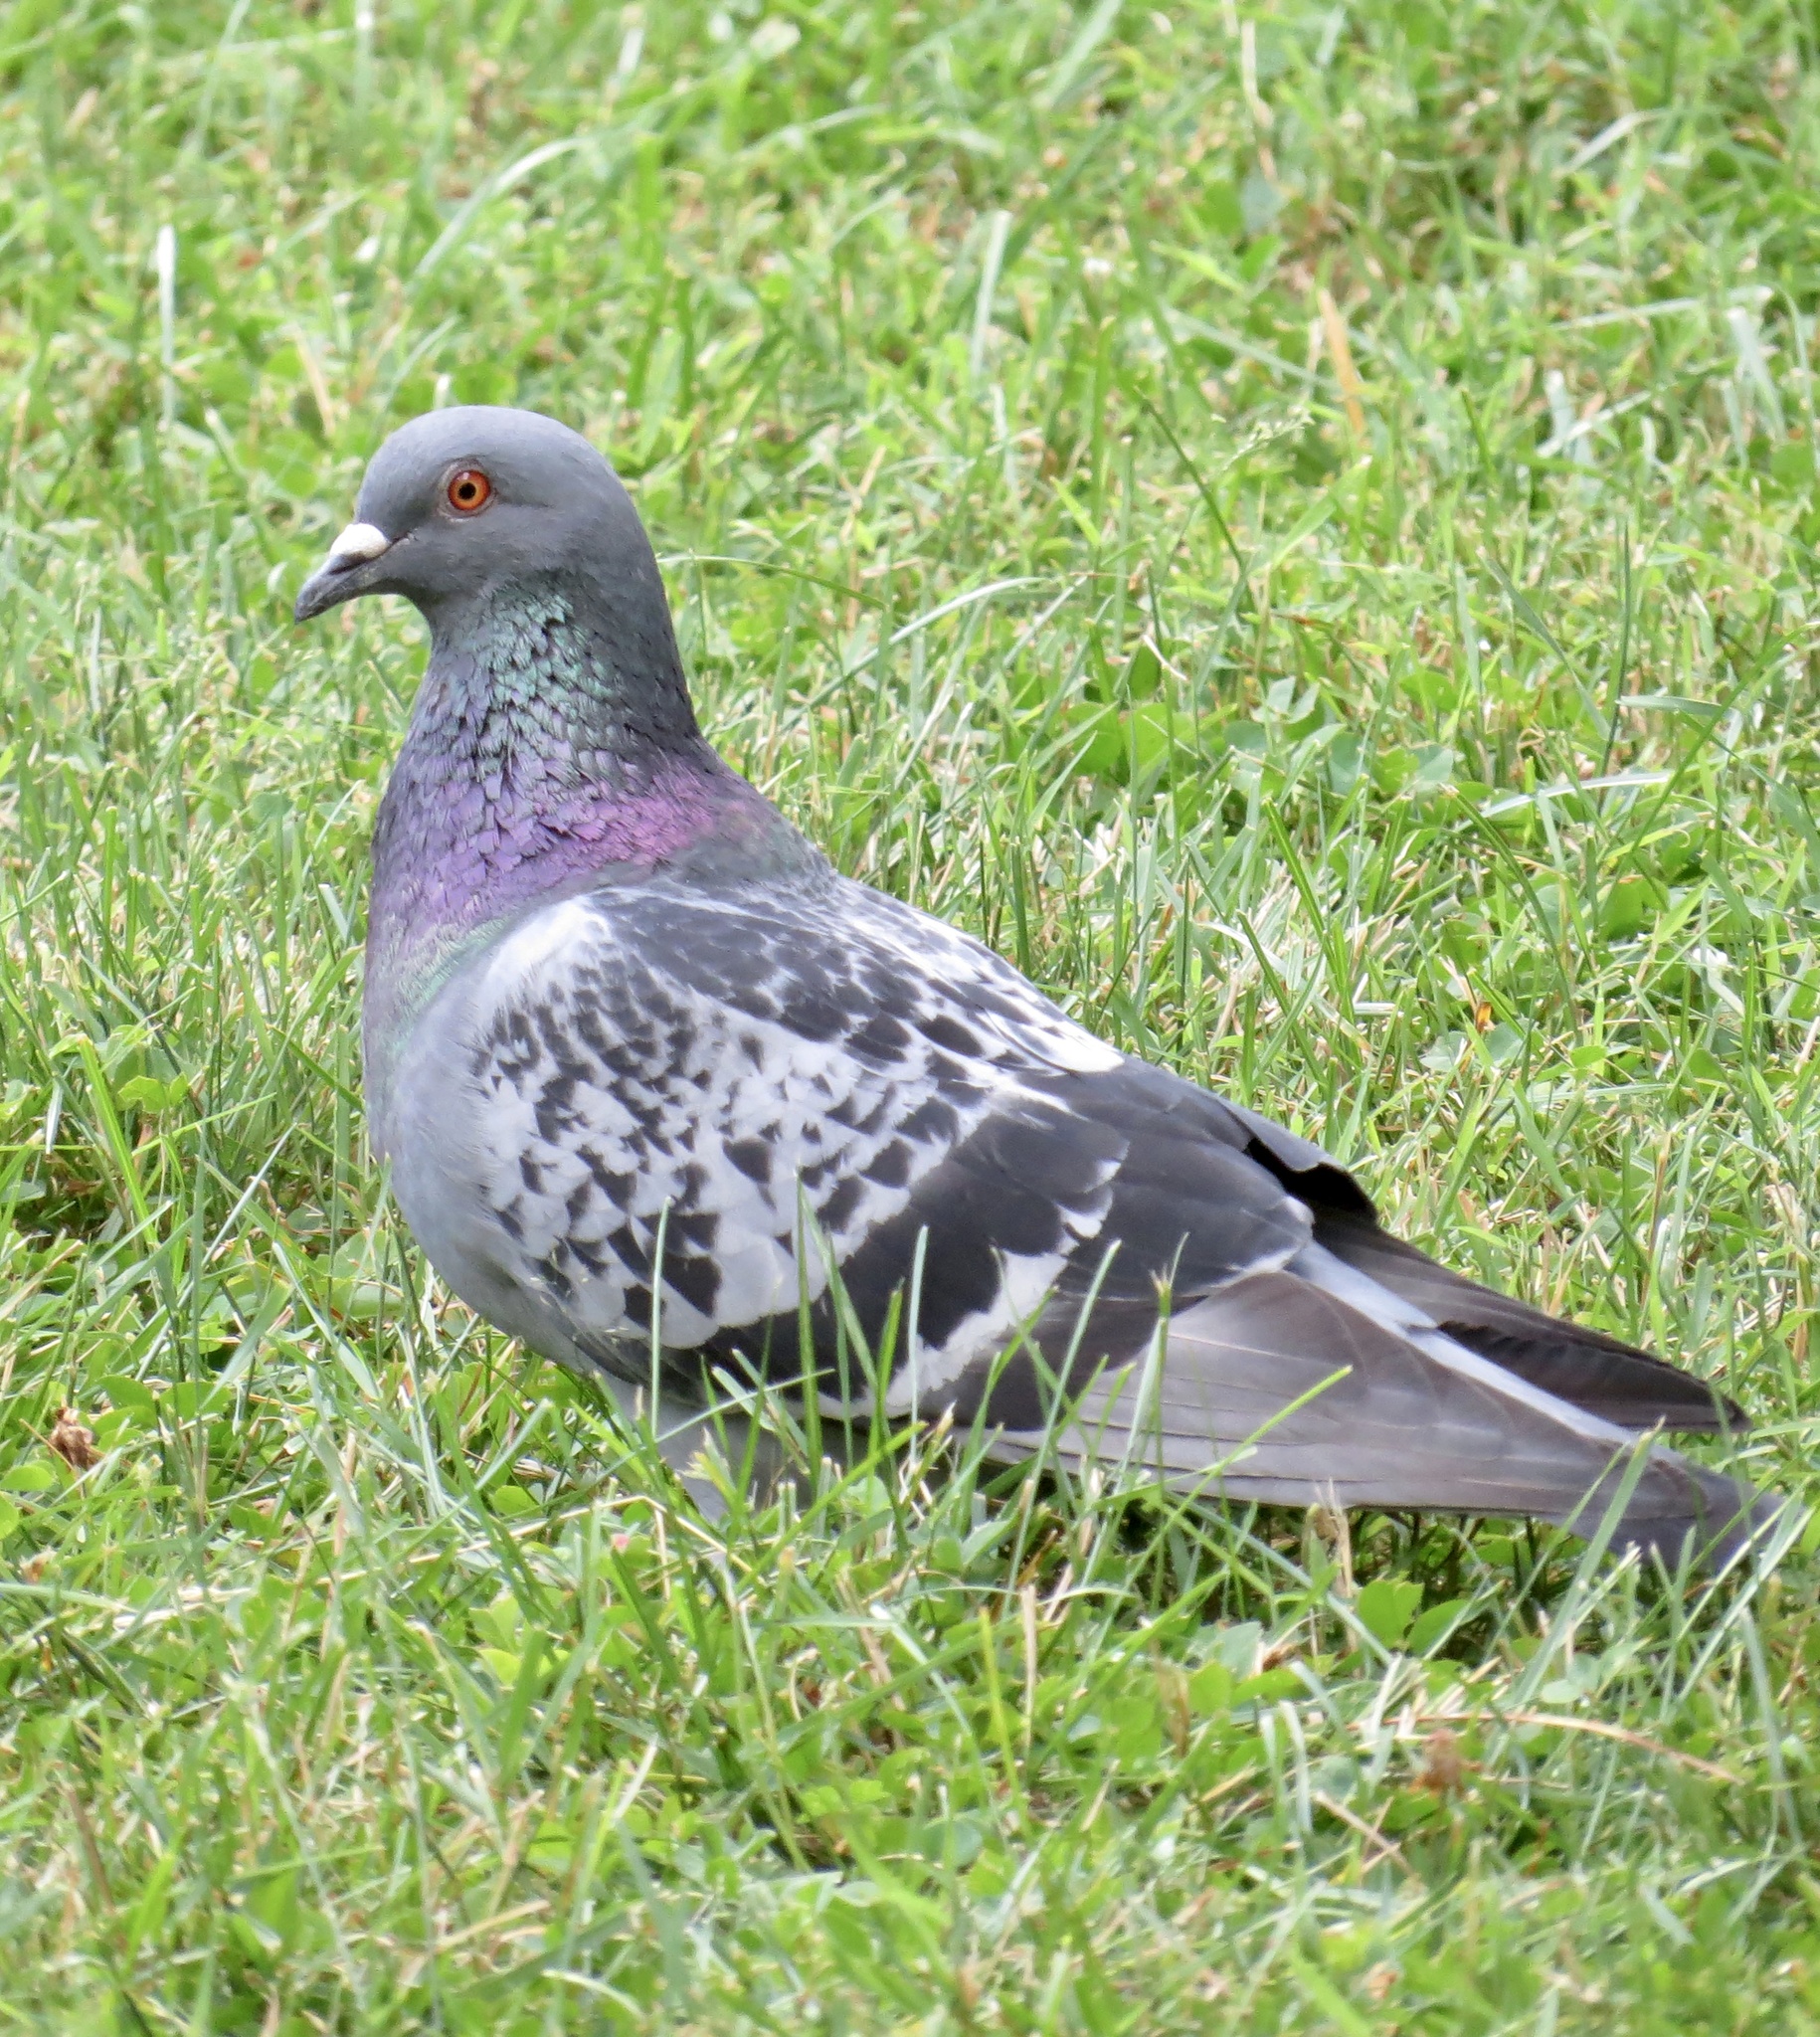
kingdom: Animalia
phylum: Chordata
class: Aves
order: Columbiformes
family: Columbidae
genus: Columba
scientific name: Columba livia
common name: Rock pigeon
